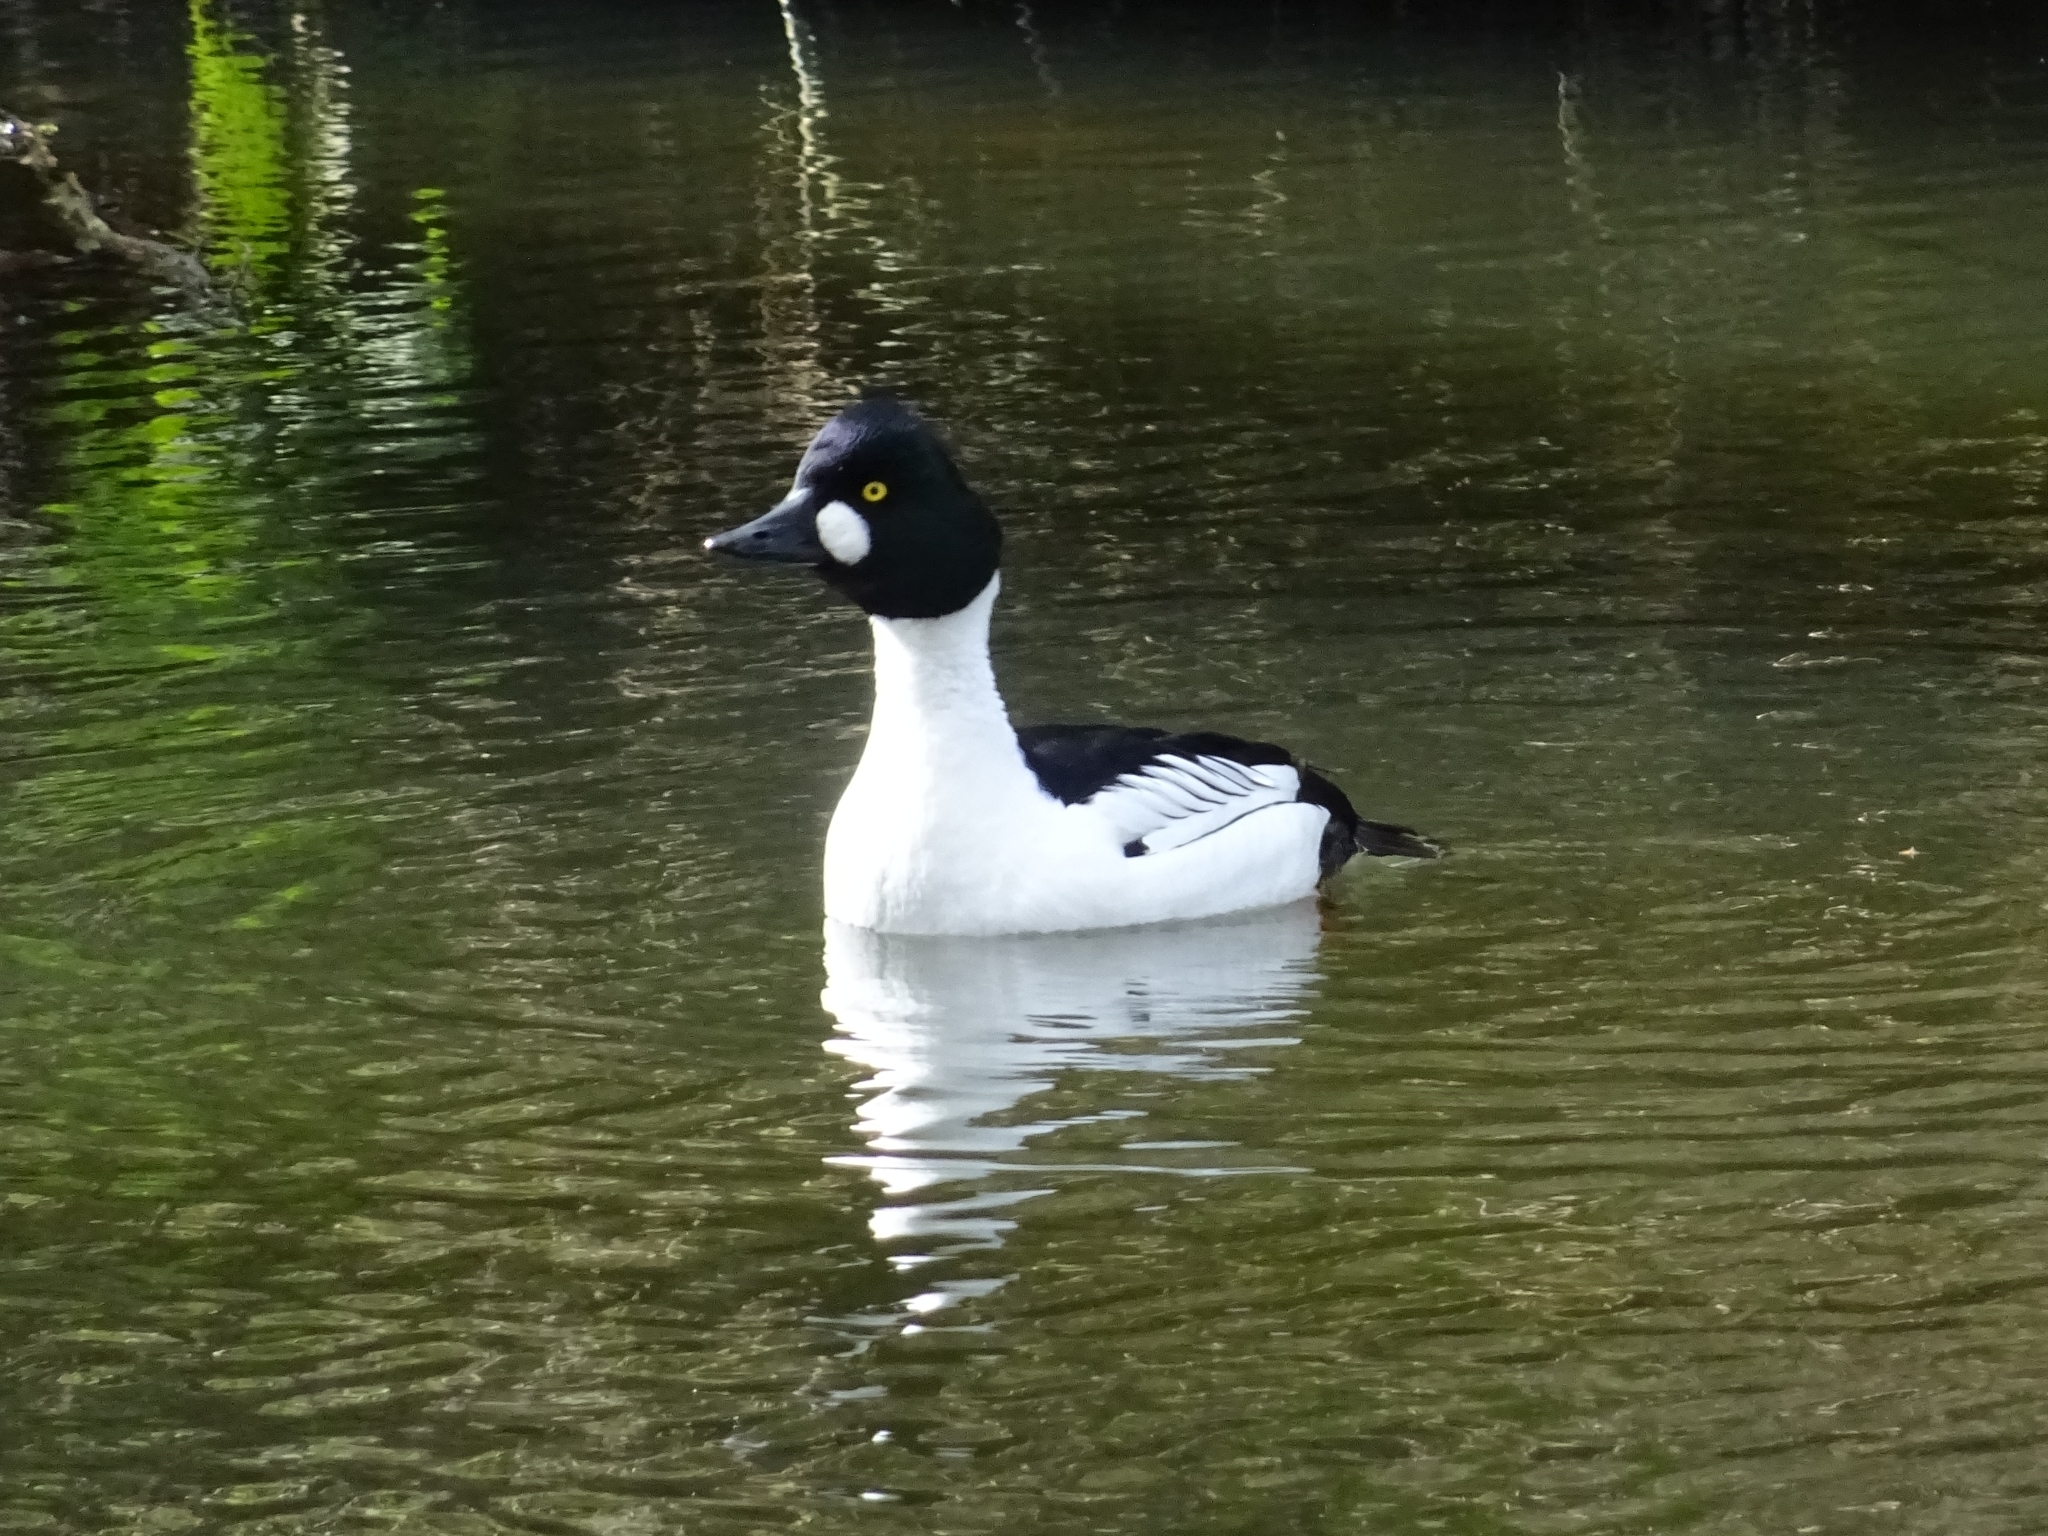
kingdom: Animalia
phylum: Chordata
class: Aves
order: Anseriformes
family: Anatidae
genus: Bucephala
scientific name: Bucephala clangula
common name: Common goldeneye
